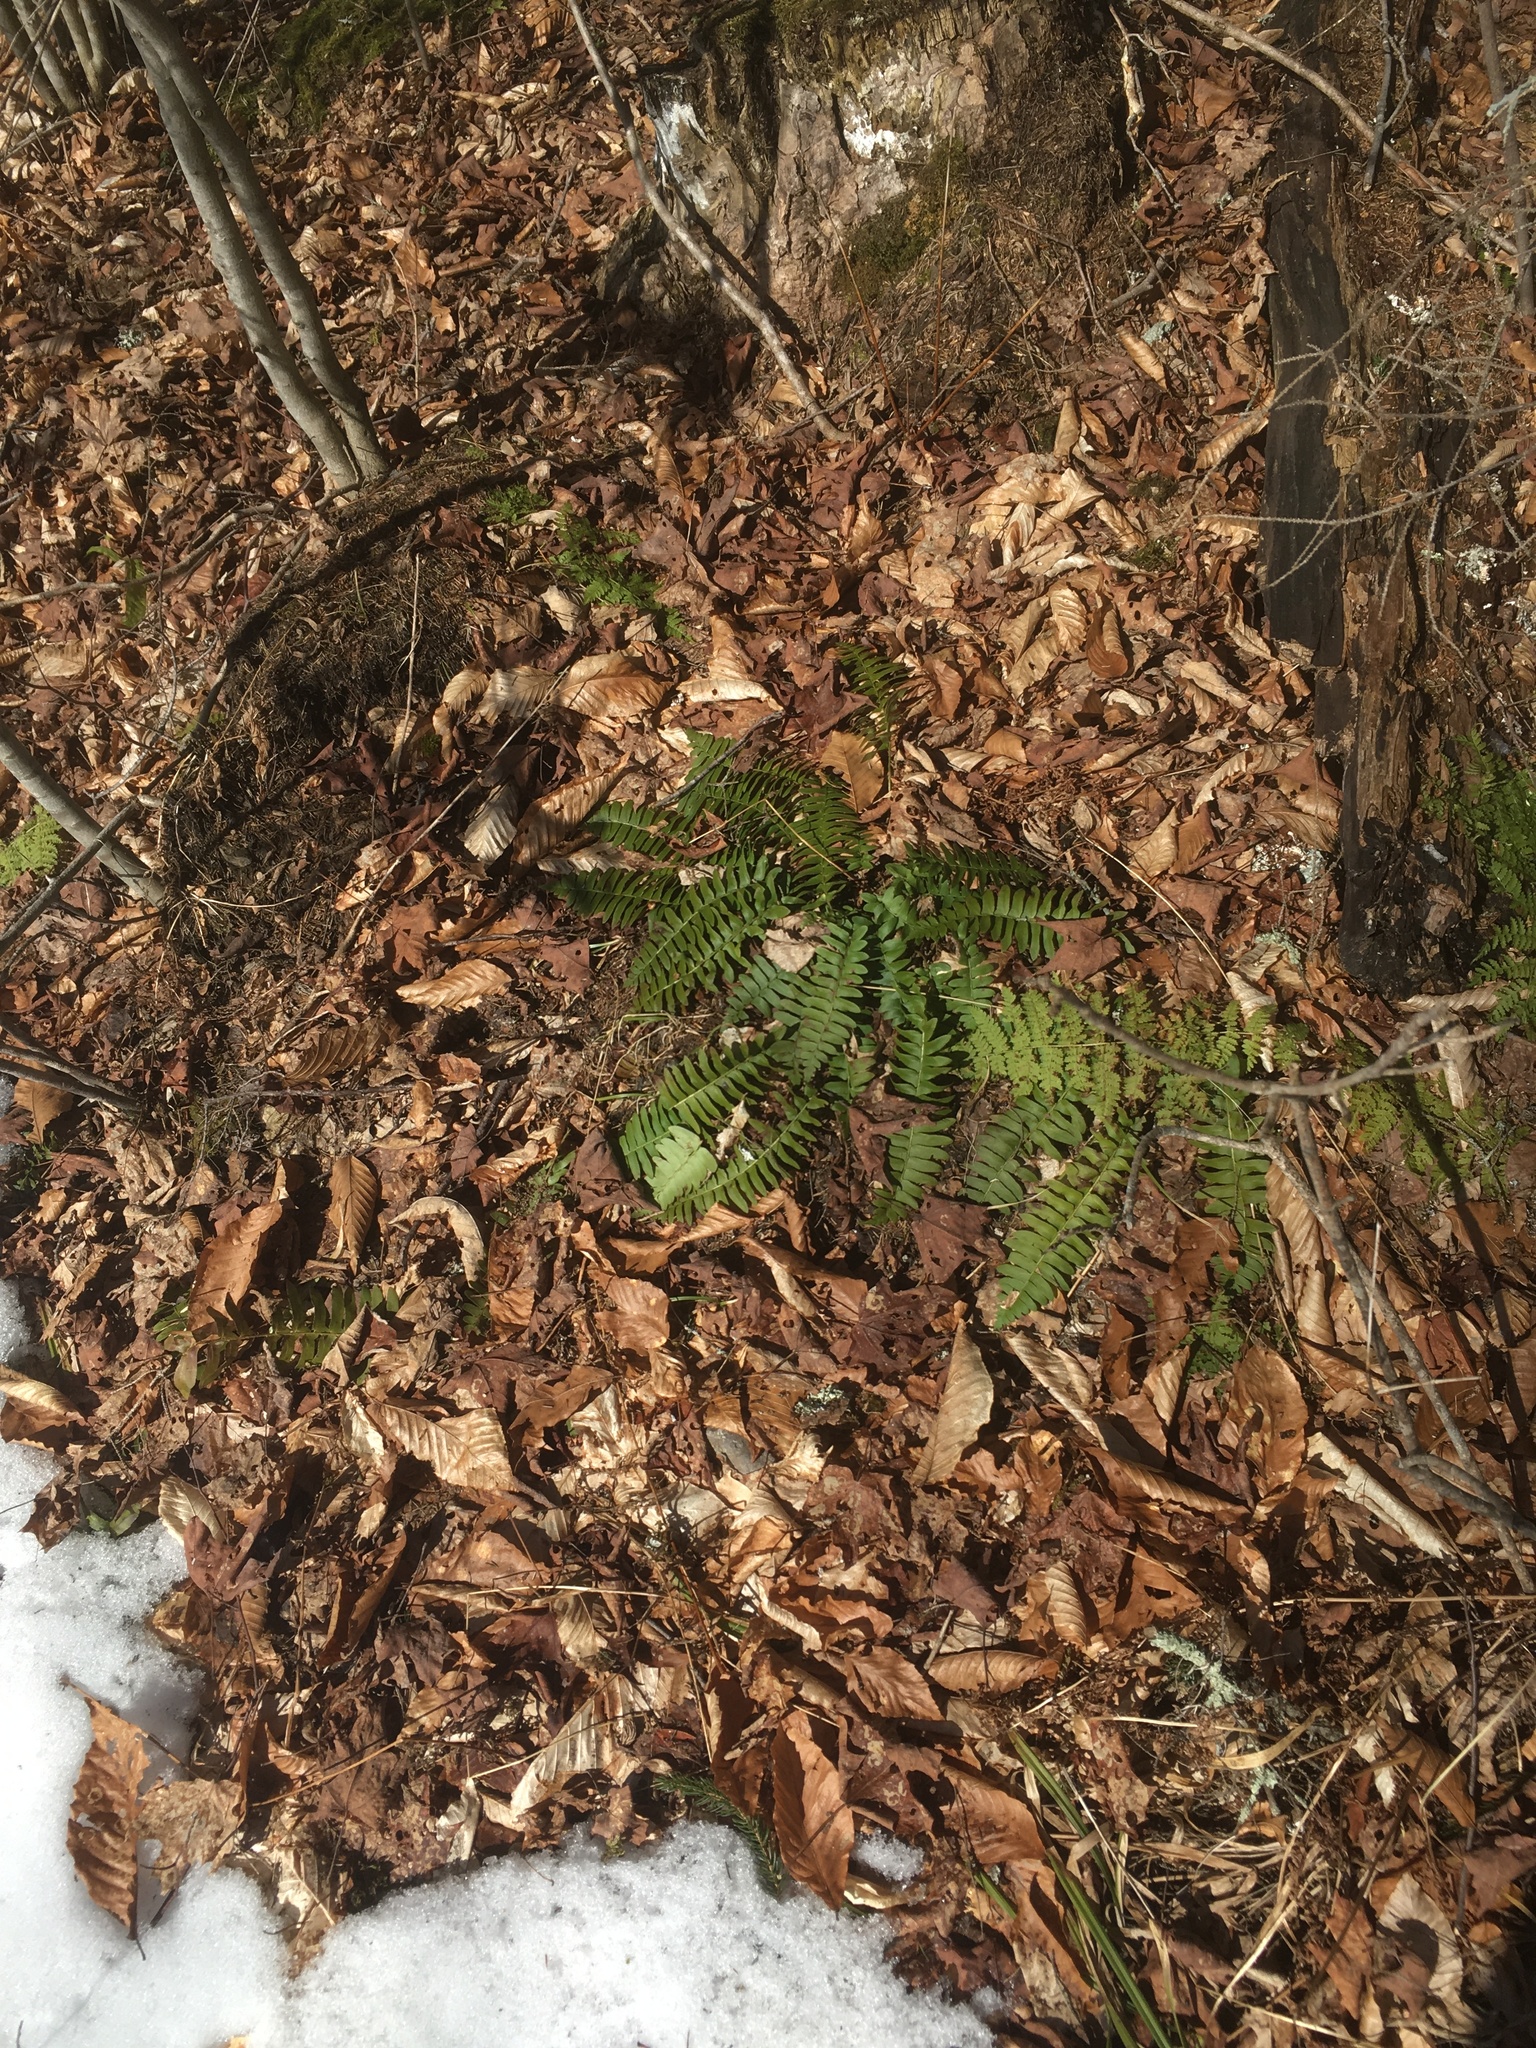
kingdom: Plantae
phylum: Tracheophyta
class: Polypodiopsida
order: Polypodiales
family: Dryopteridaceae
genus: Polystichum
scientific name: Polystichum acrostichoides
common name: Christmas fern
